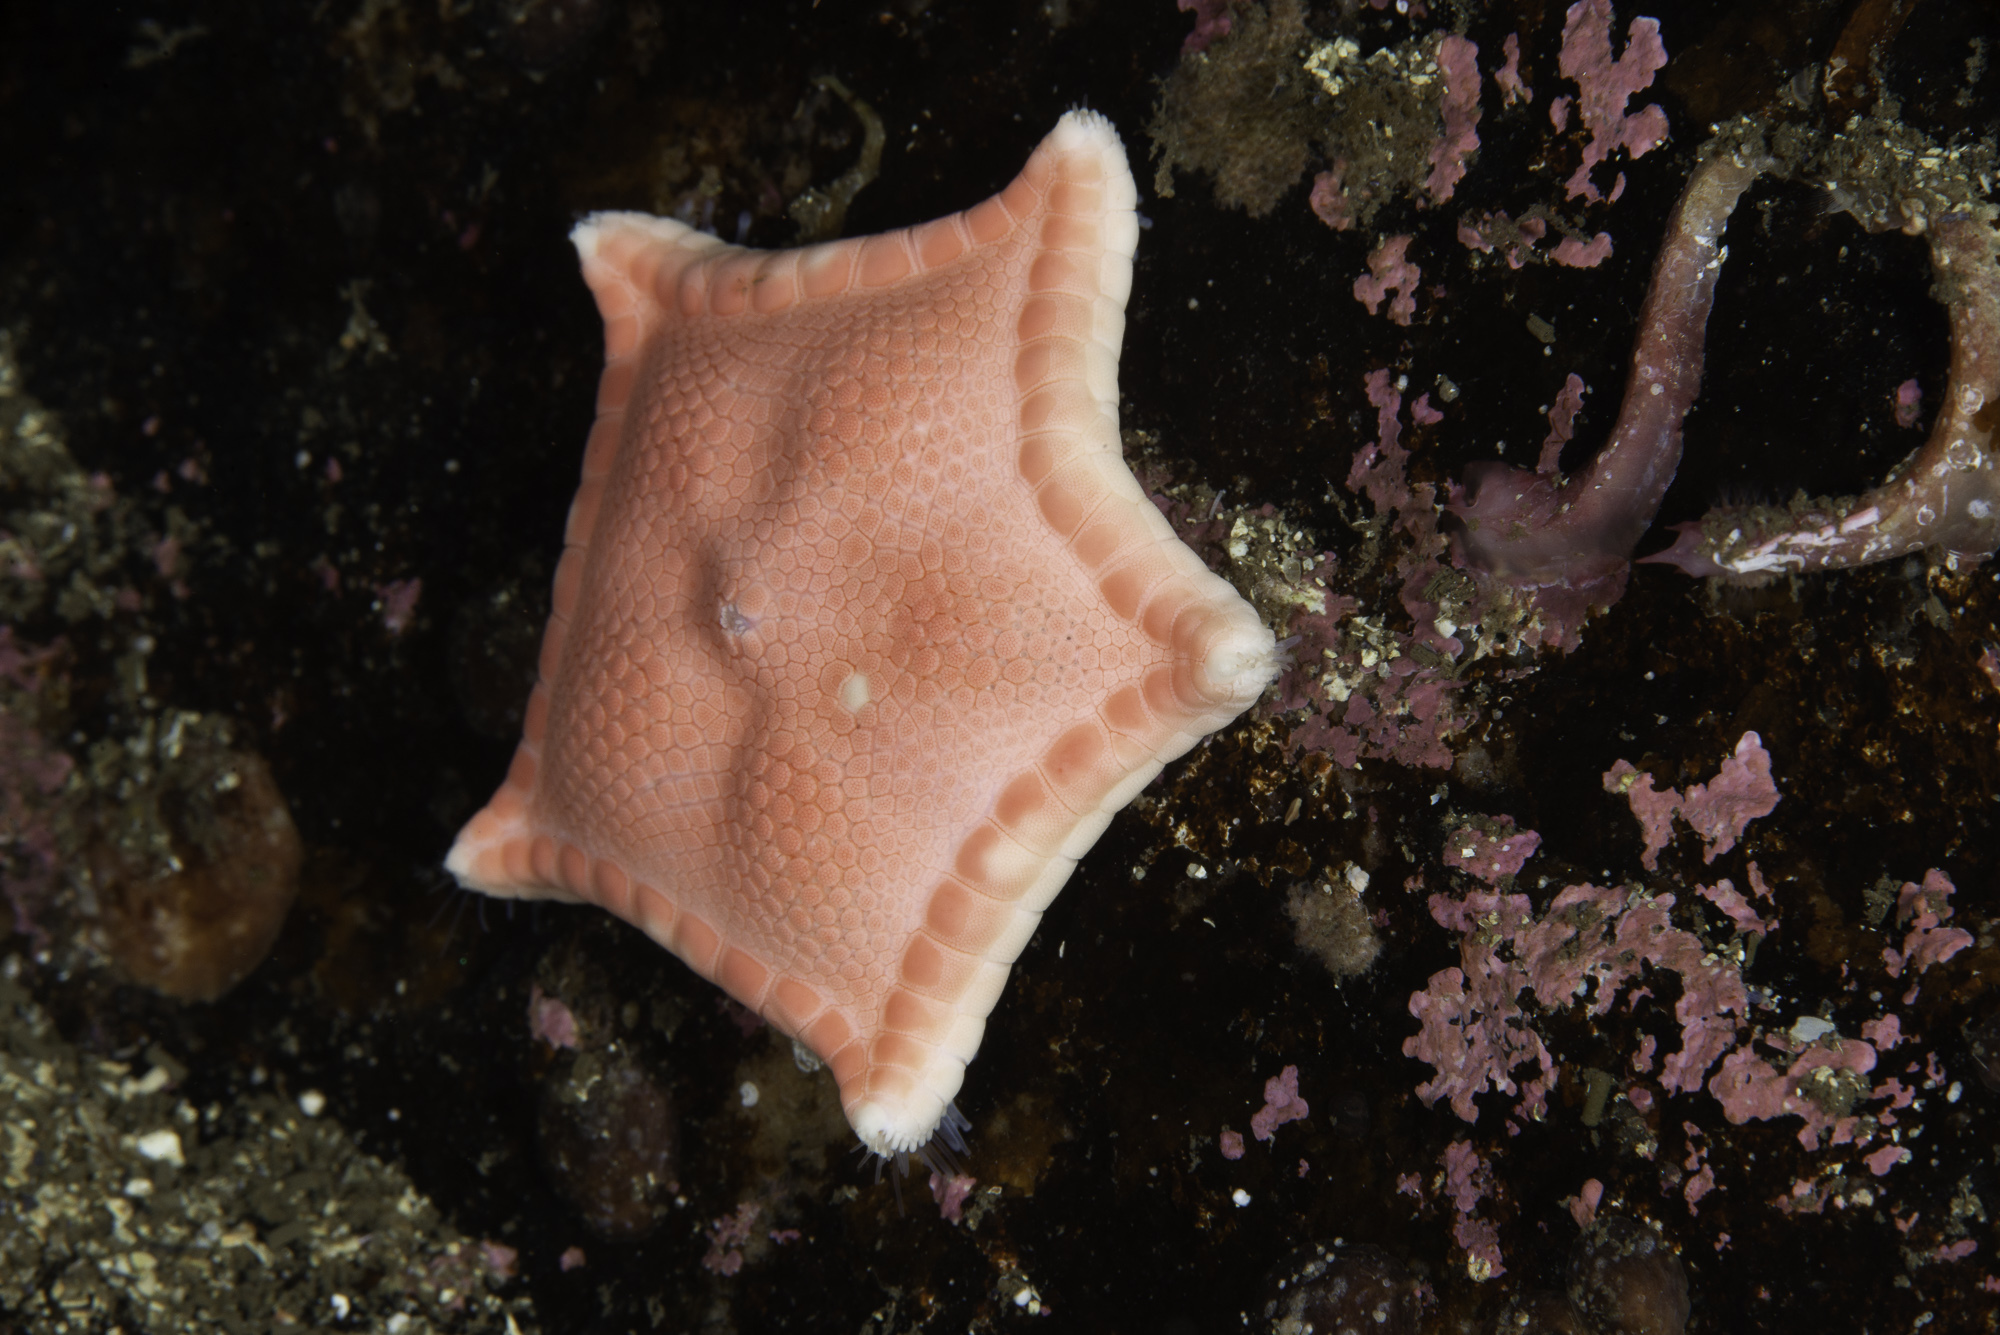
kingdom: Animalia
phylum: Echinodermata
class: Asteroidea
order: Valvatida
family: Goniasteridae
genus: Ceramaster
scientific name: Ceramaster granularis
